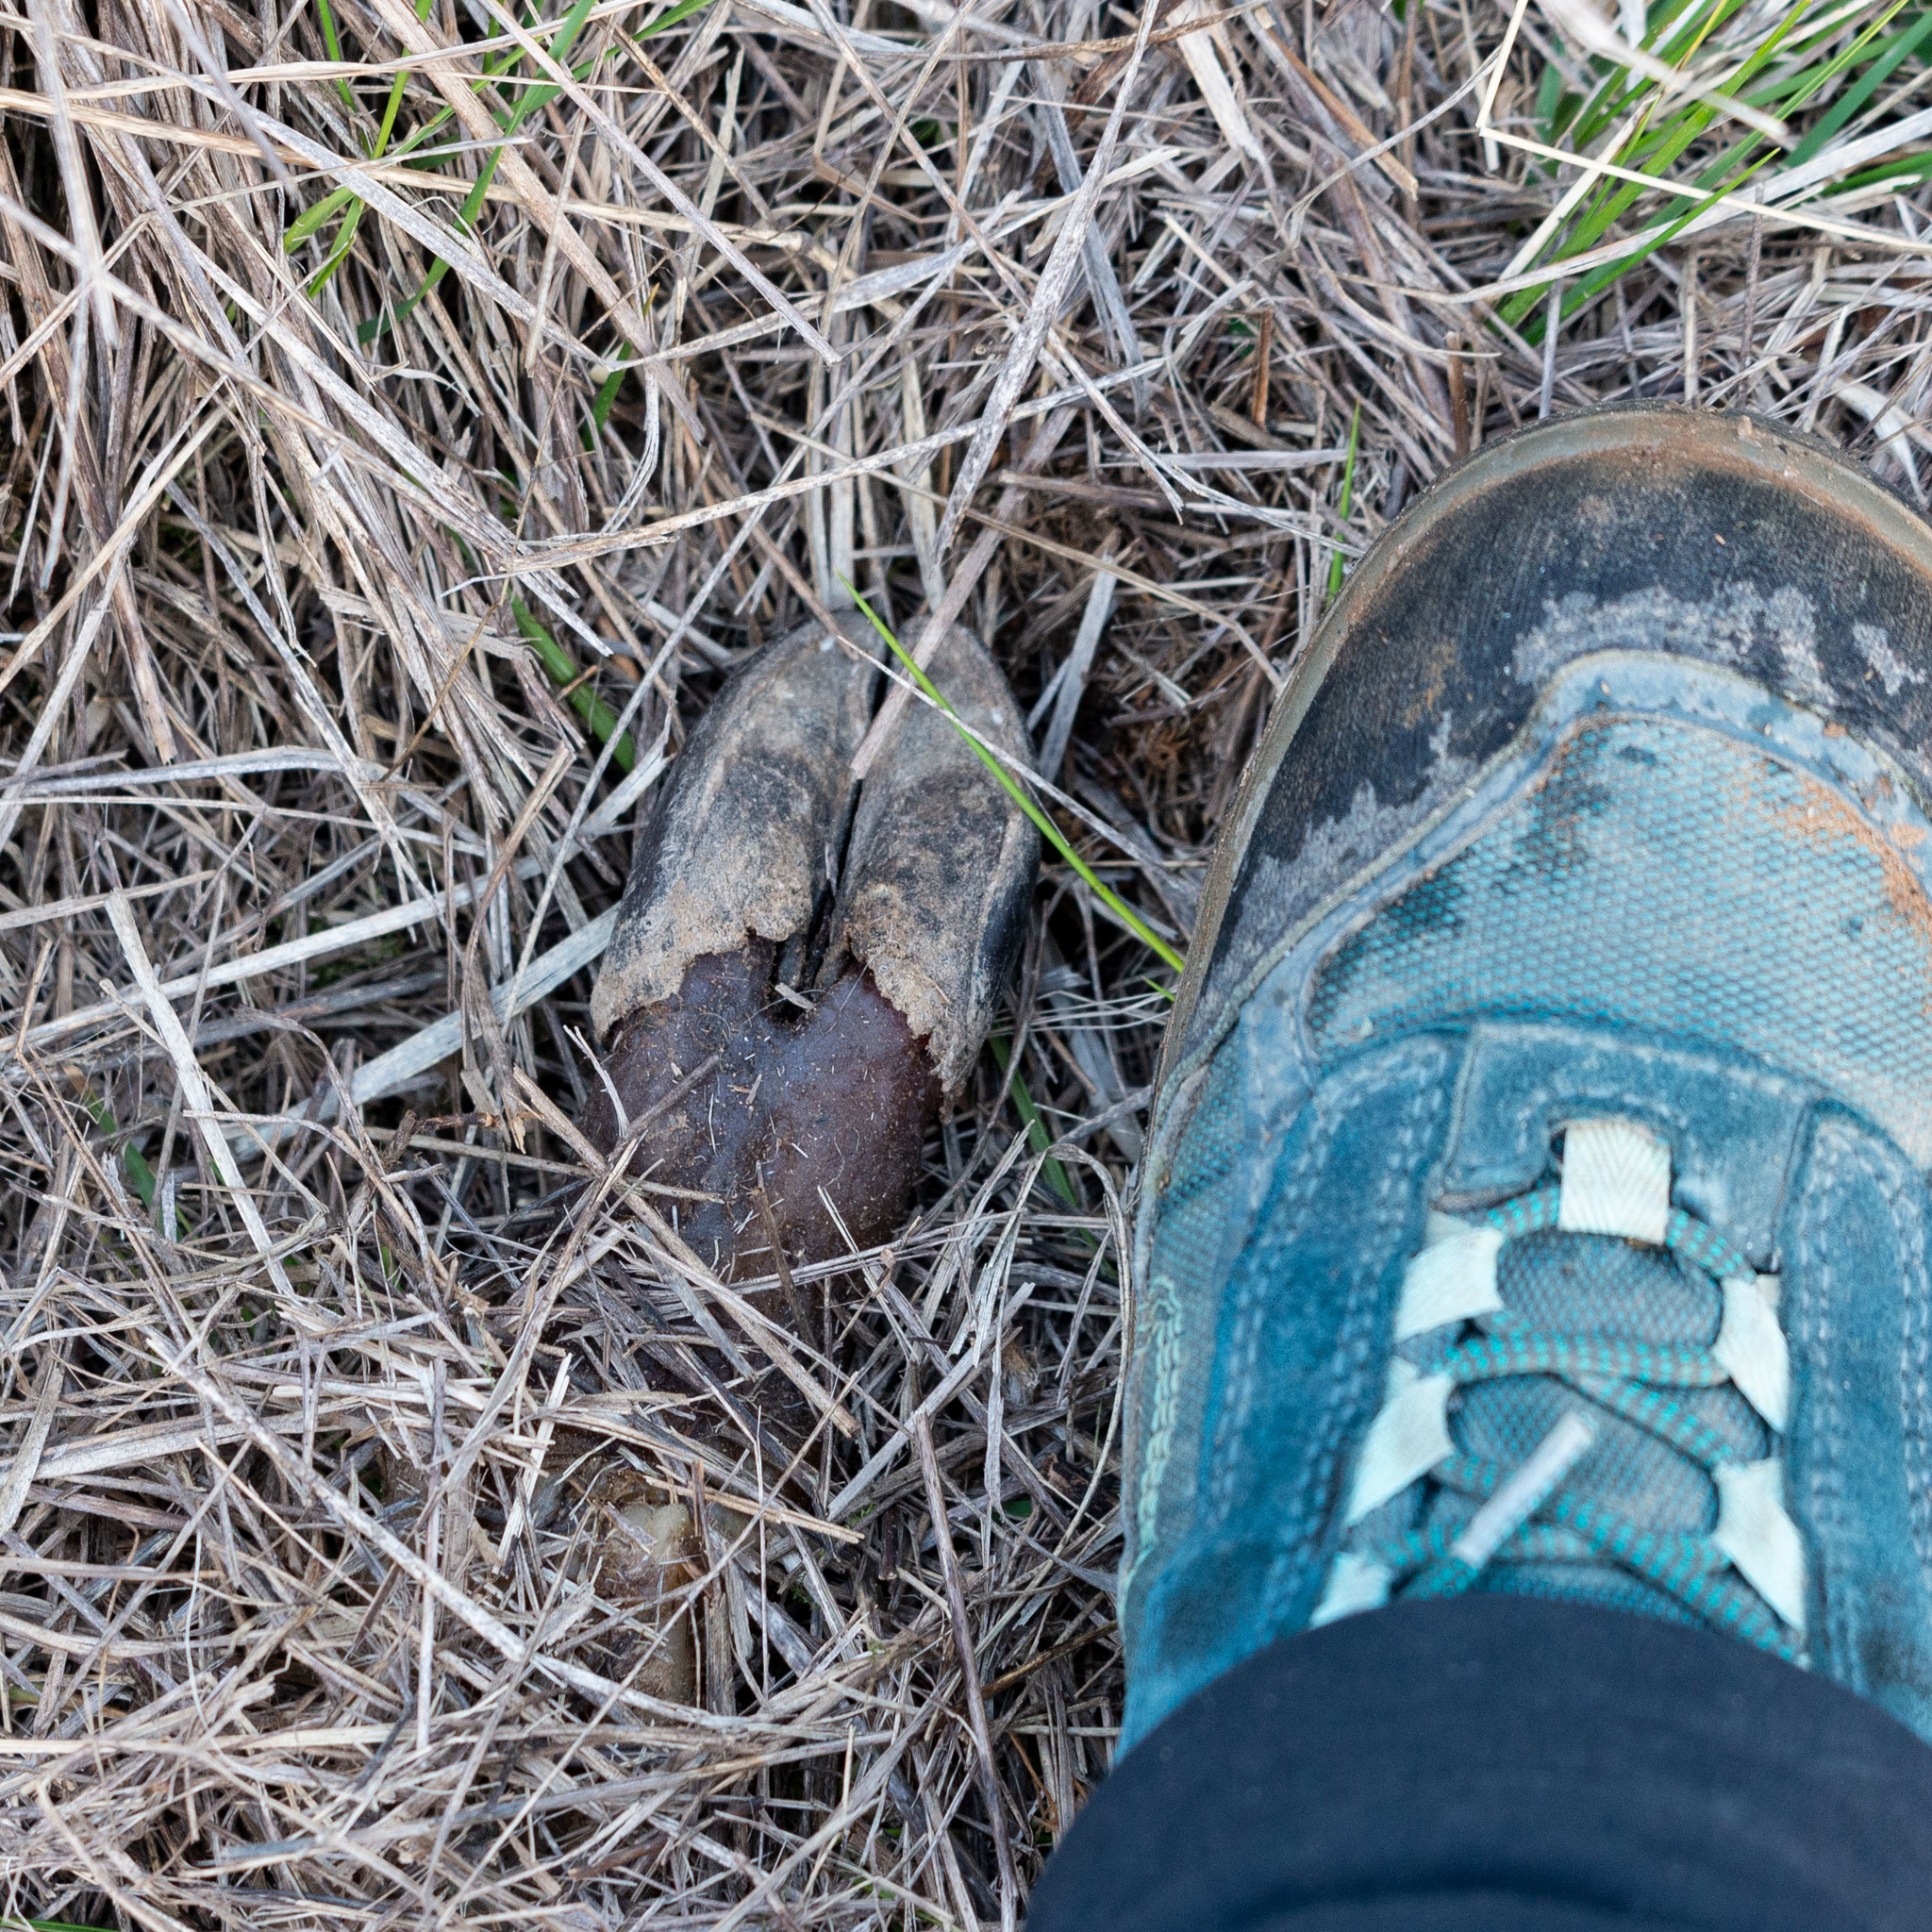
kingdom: Animalia
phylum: Chordata
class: Mammalia
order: Artiodactyla
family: Cervidae
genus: Capreolus
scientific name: Capreolus capreolus
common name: Western roe deer
